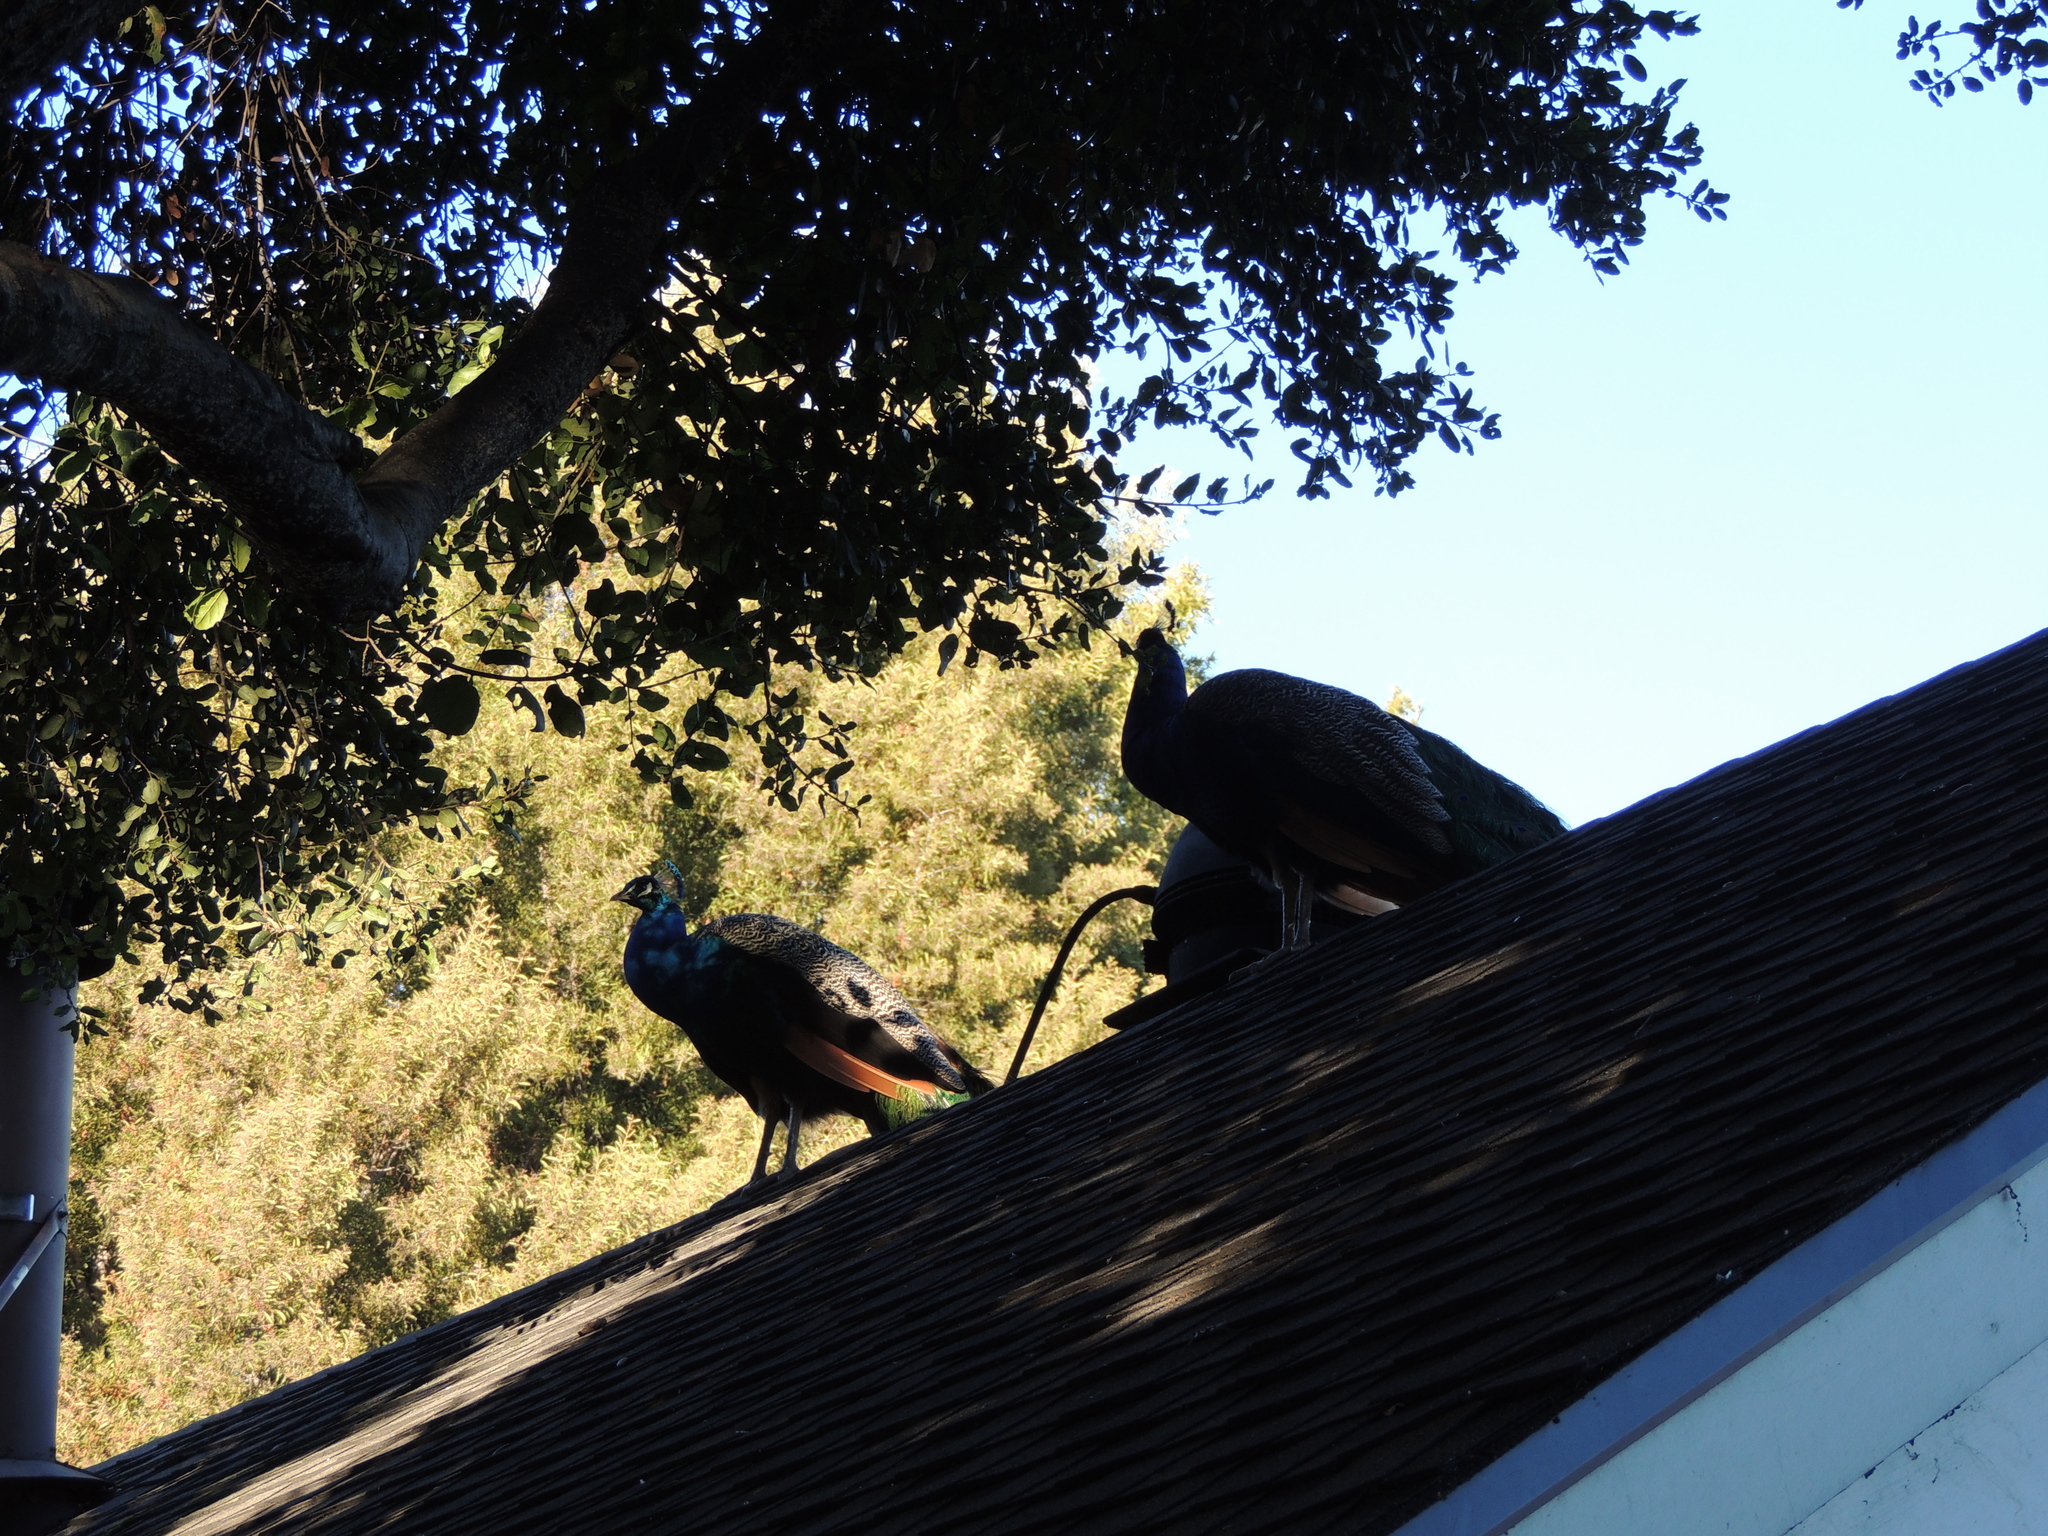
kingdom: Animalia
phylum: Chordata
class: Aves
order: Galliformes
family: Phasianidae
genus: Pavo
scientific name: Pavo cristatus
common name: Indian peafowl
